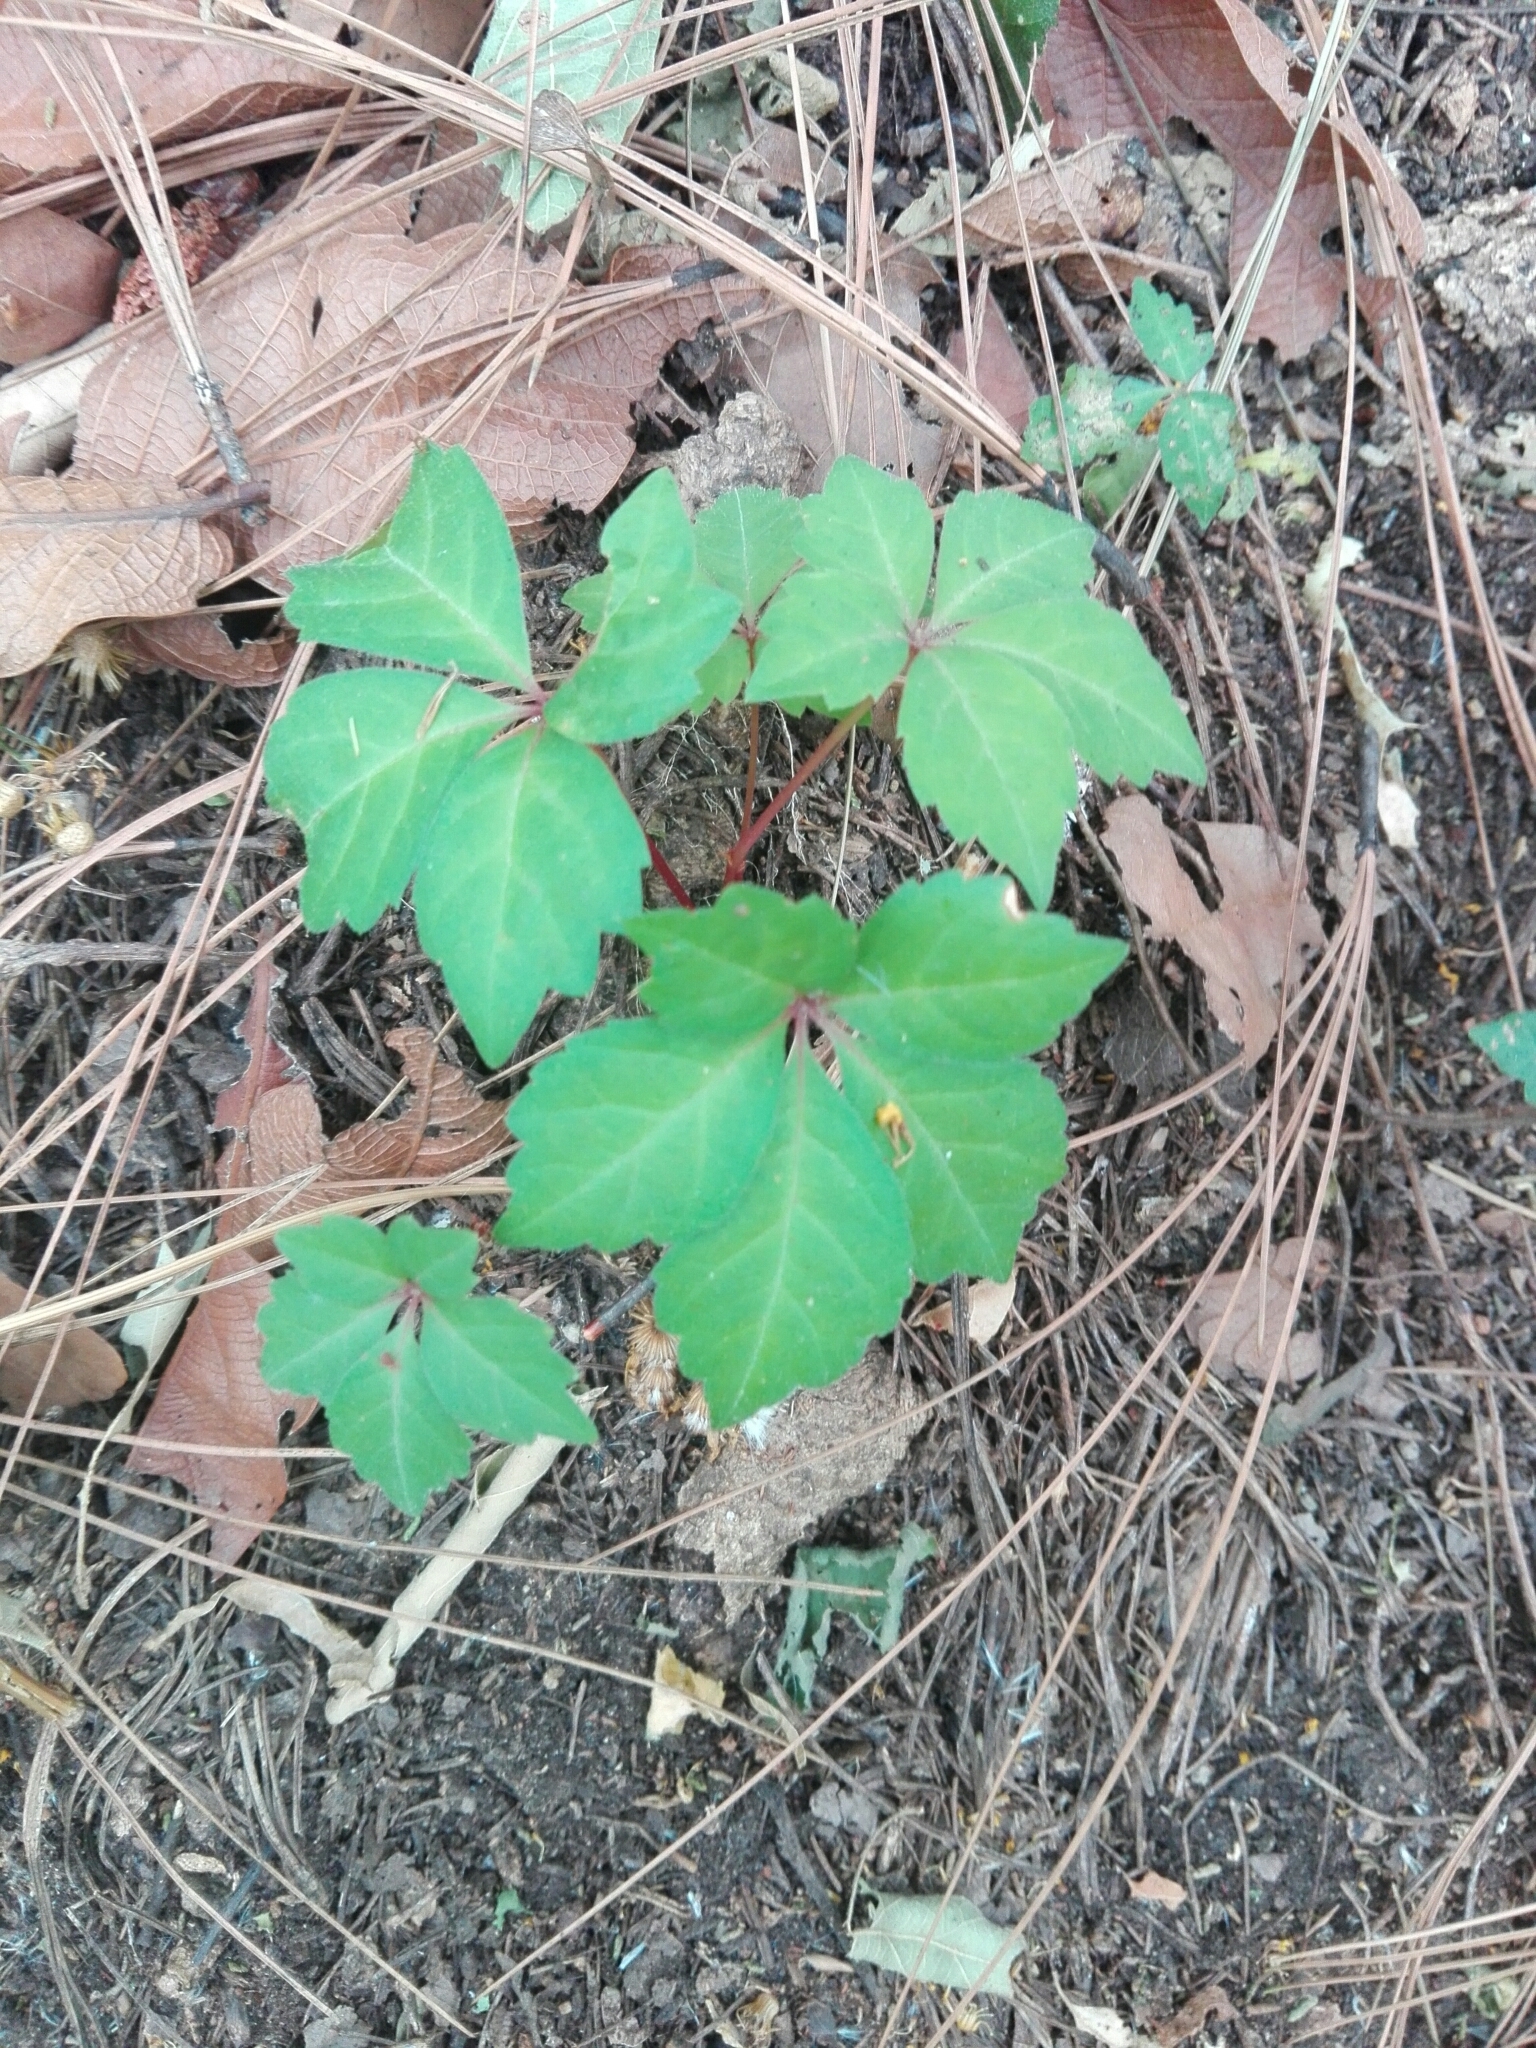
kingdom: Plantae
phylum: Tracheophyta
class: Magnoliopsida
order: Vitales
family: Vitaceae
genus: Parthenocissus
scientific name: Parthenocissus quinquefolia
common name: Virginia-creeper
